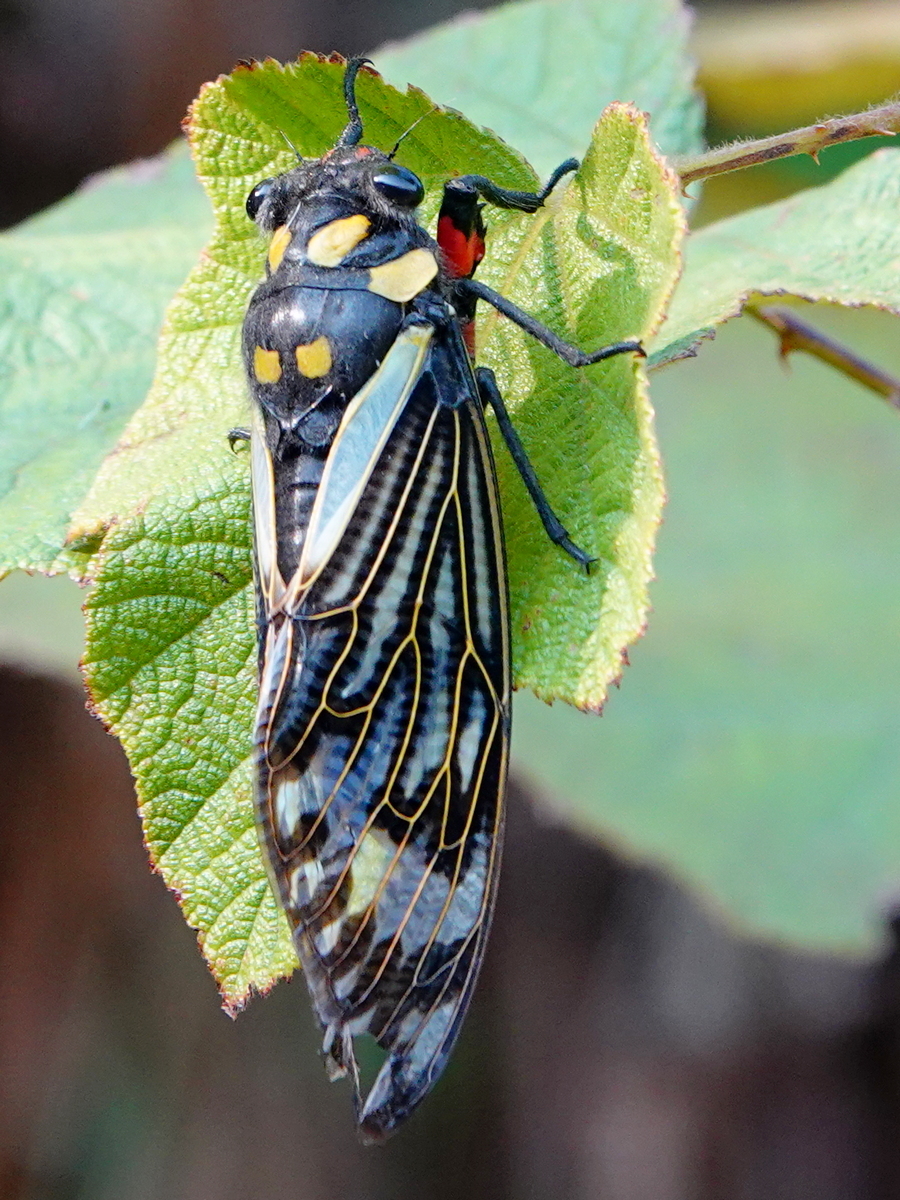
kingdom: Animalia
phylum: Arthropoda
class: Insecta
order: Hemiptera
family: Cicadidae
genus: Distantalna
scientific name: Distantalna splendida
